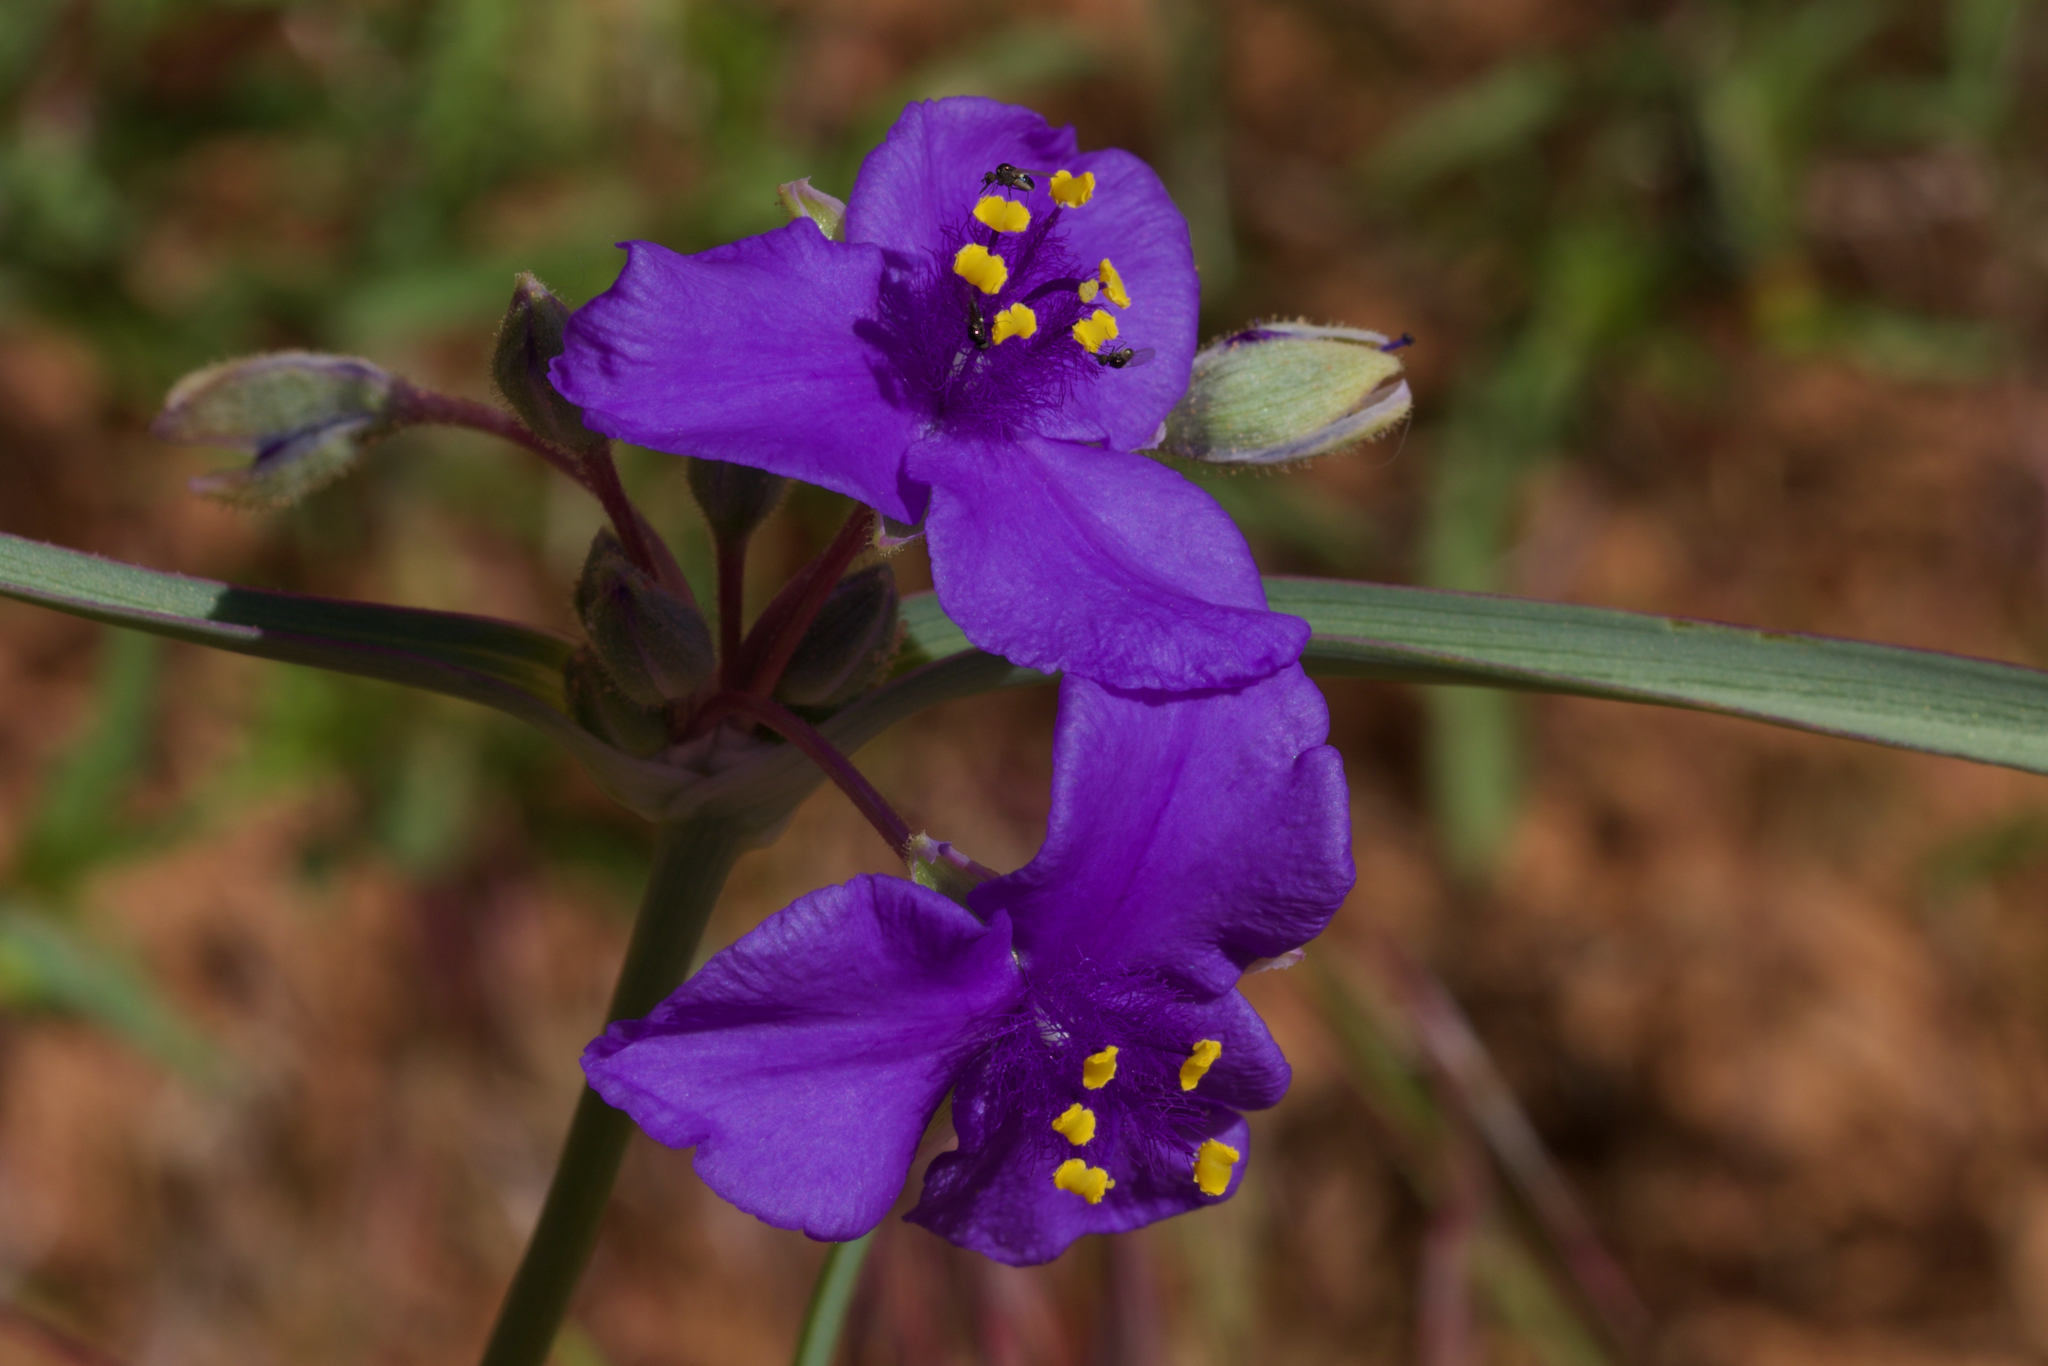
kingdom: Plantae
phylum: Tracheophyta
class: Liliopsida
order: Commelinales
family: Commelinaceae
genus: Tradescantia
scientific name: Tradescantia occidentalis
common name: Prairie spiderwort
